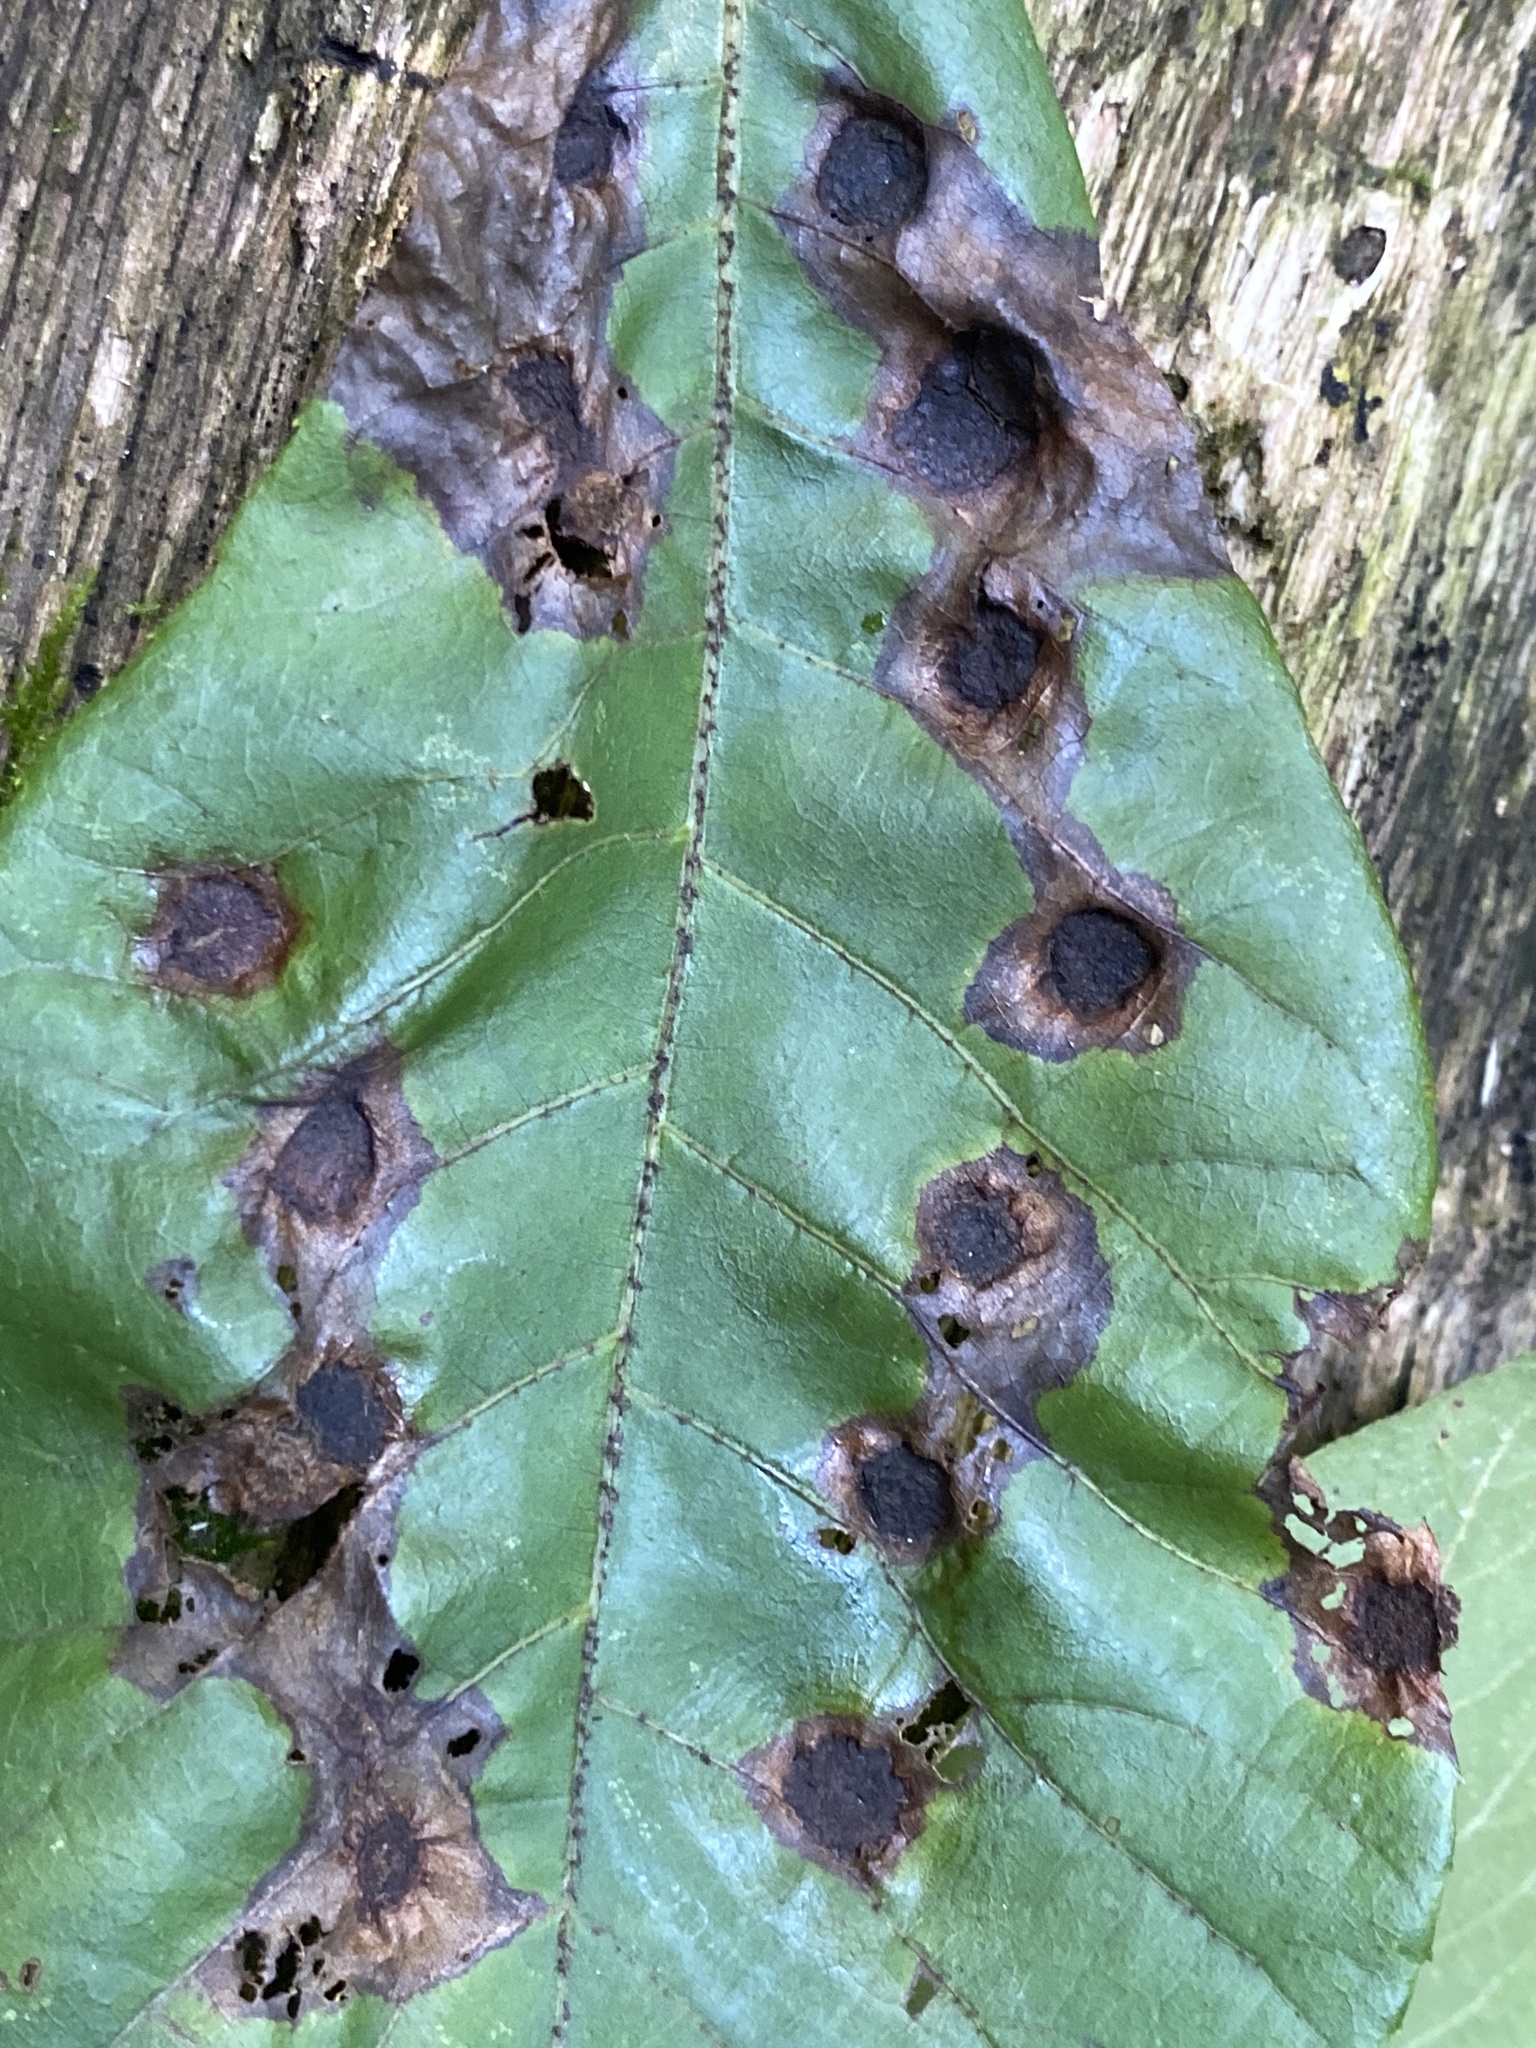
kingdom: Animalia
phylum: Arthropoda
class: Insecta
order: Hemiptera
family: Phylloxeridae
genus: Phylloxera
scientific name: Phylloxera caryae-avellana
